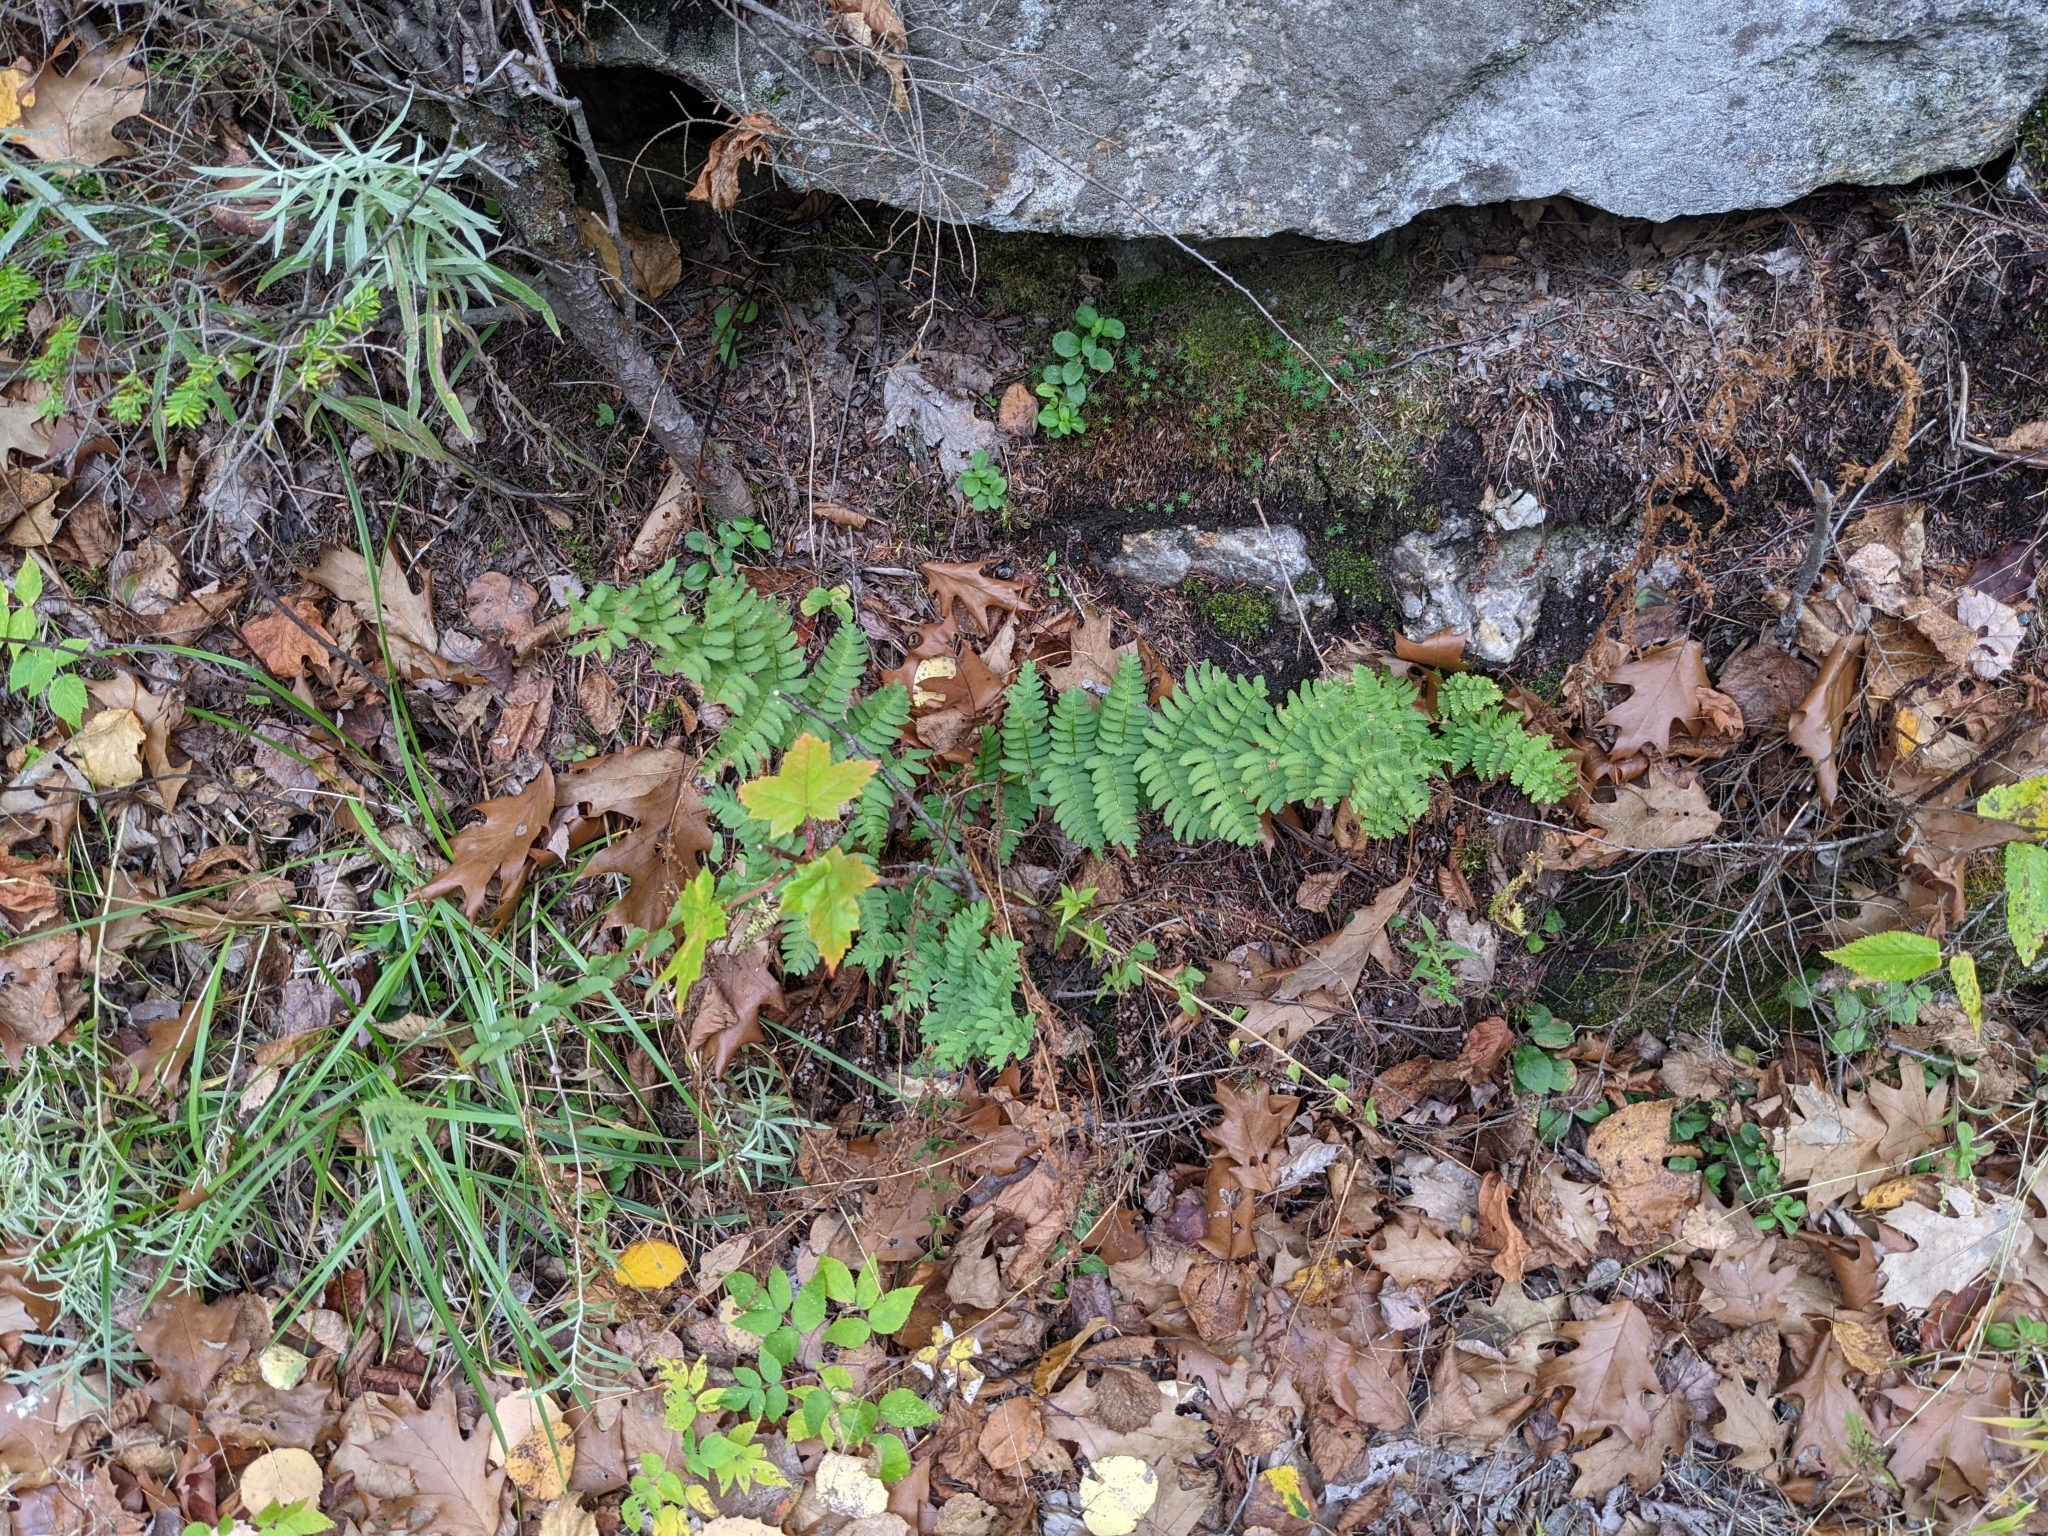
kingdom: Plantae
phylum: Tracheophyta
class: Polypodiopsida
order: Polypodiales
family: Dryopteridaceae
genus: Dryopteris
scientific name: Dryopteris marginalis
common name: Marginal wood fern
